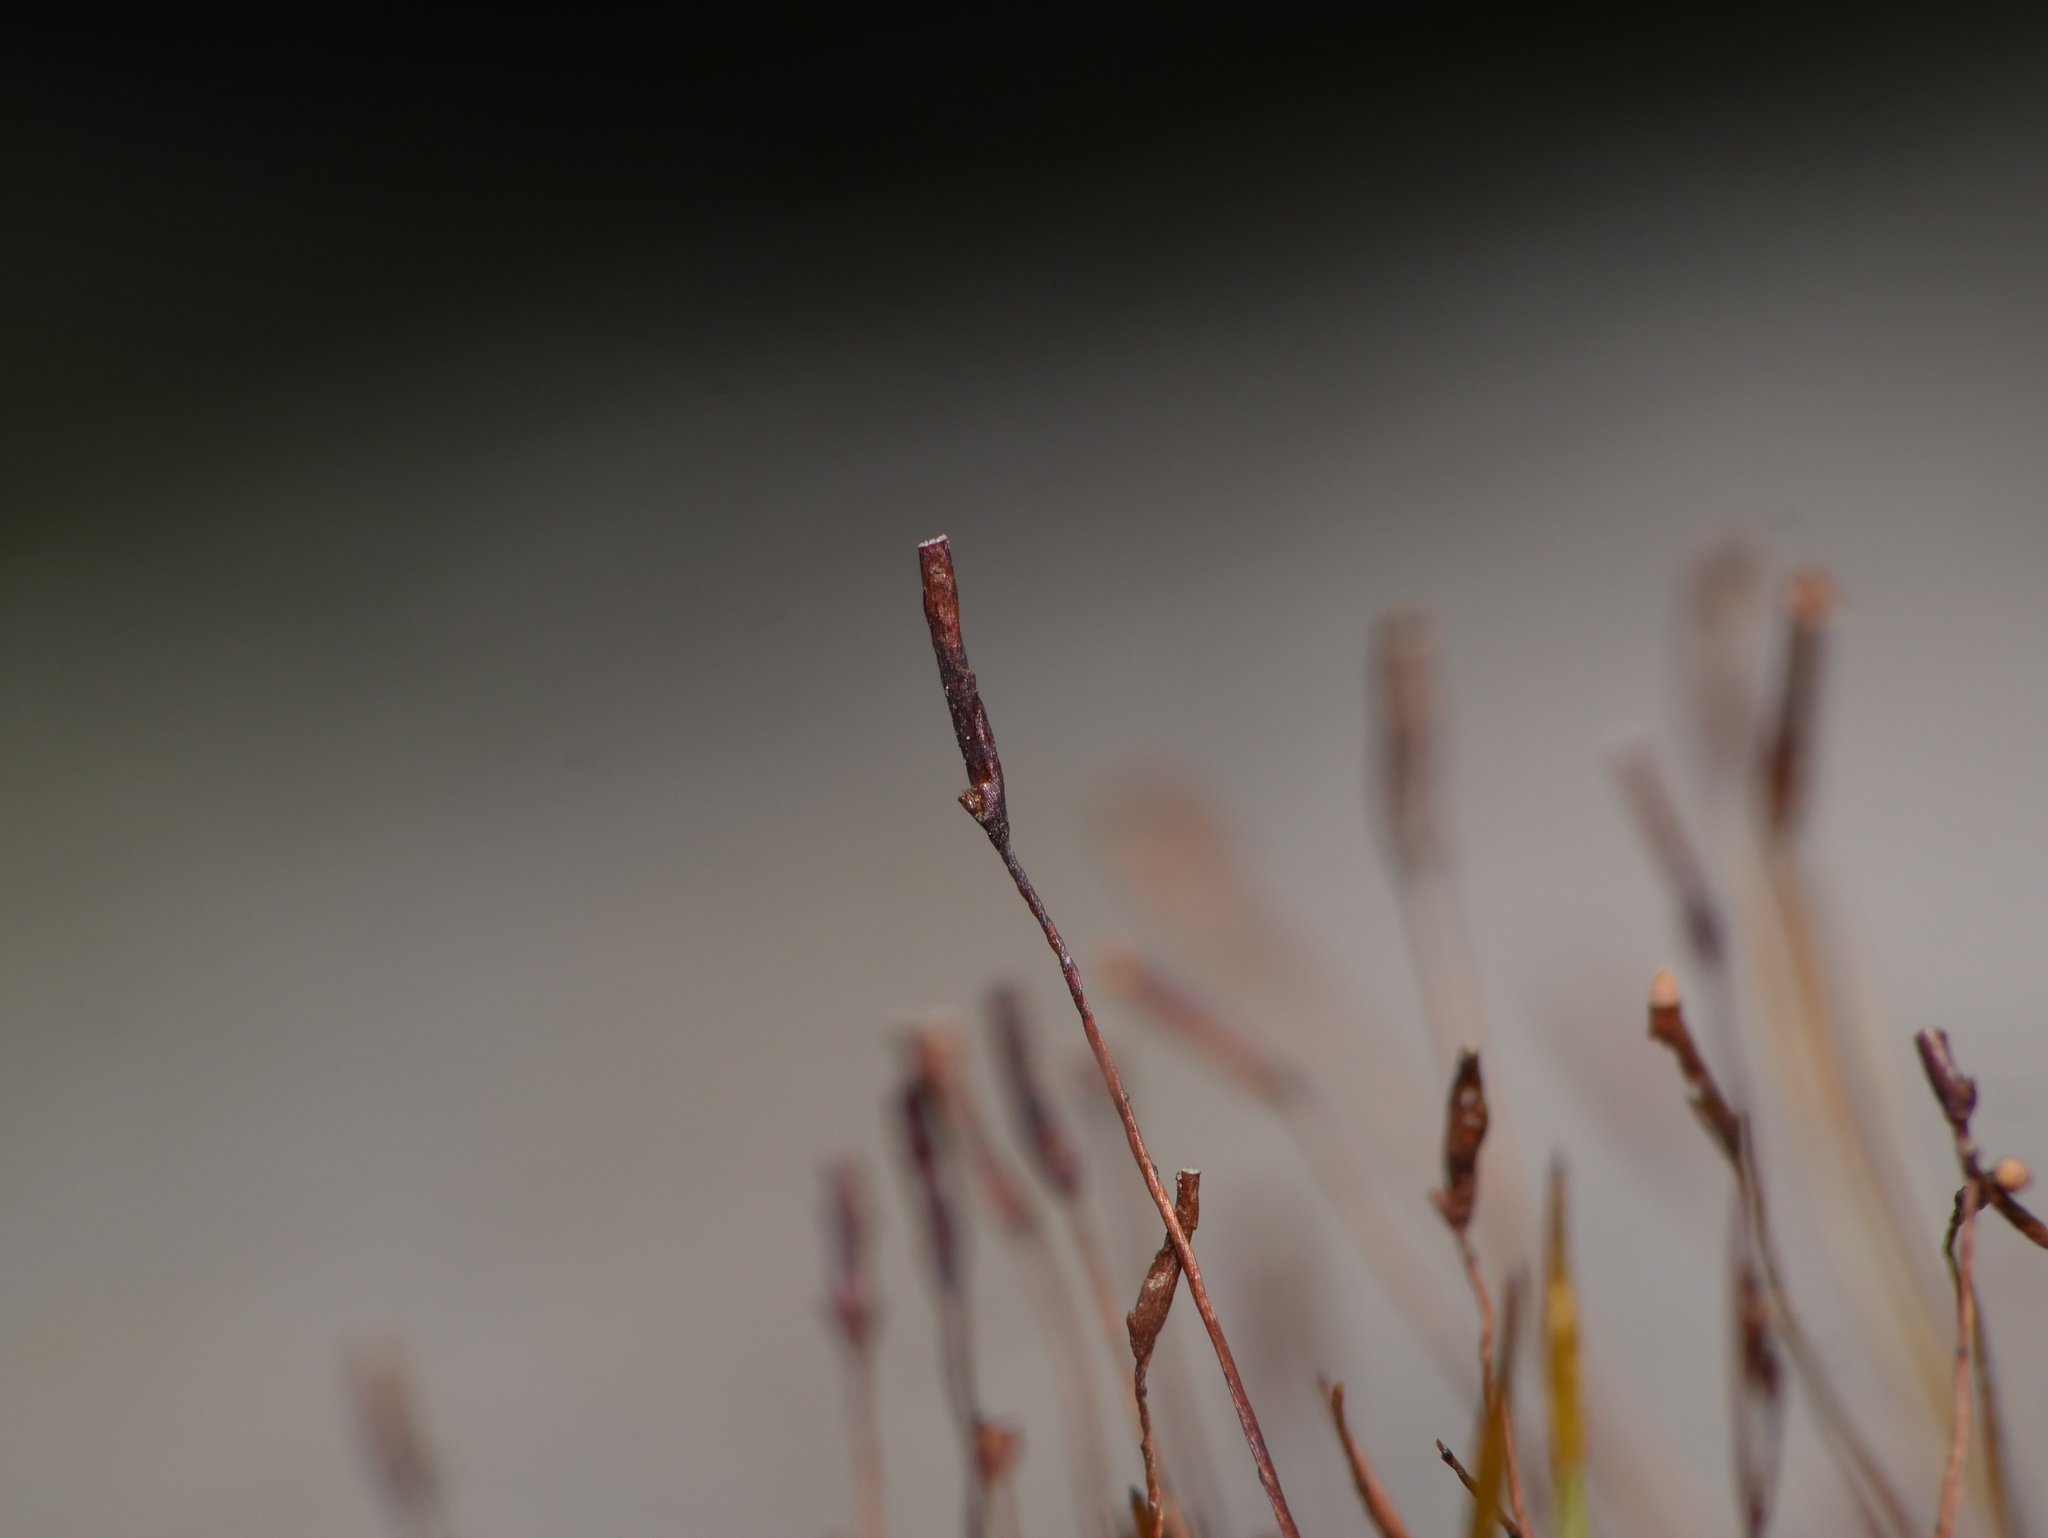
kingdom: Plantae
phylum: Bryophyta
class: Bryopsida
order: Pottiales
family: Pottiaceae
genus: Tortula
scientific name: Tortula muralis
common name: Wall screw-moss
